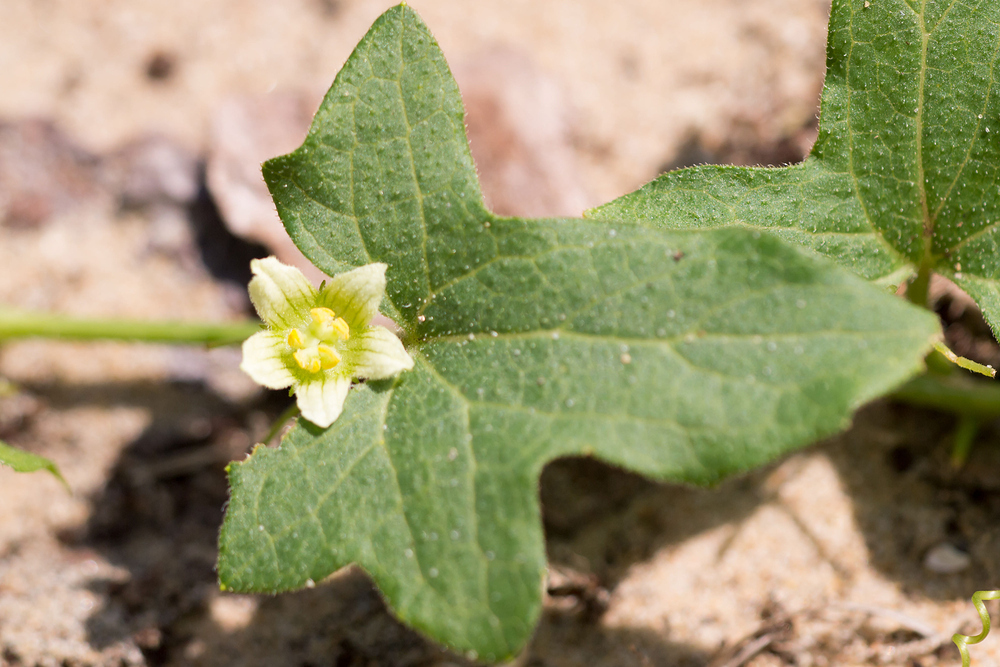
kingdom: Plantae
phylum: Tracheophyta
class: Magnoliopsida
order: Cucurbitales
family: Cucurbitaceae
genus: Bryonia
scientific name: Bryonia cretica
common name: Cretan bryony
